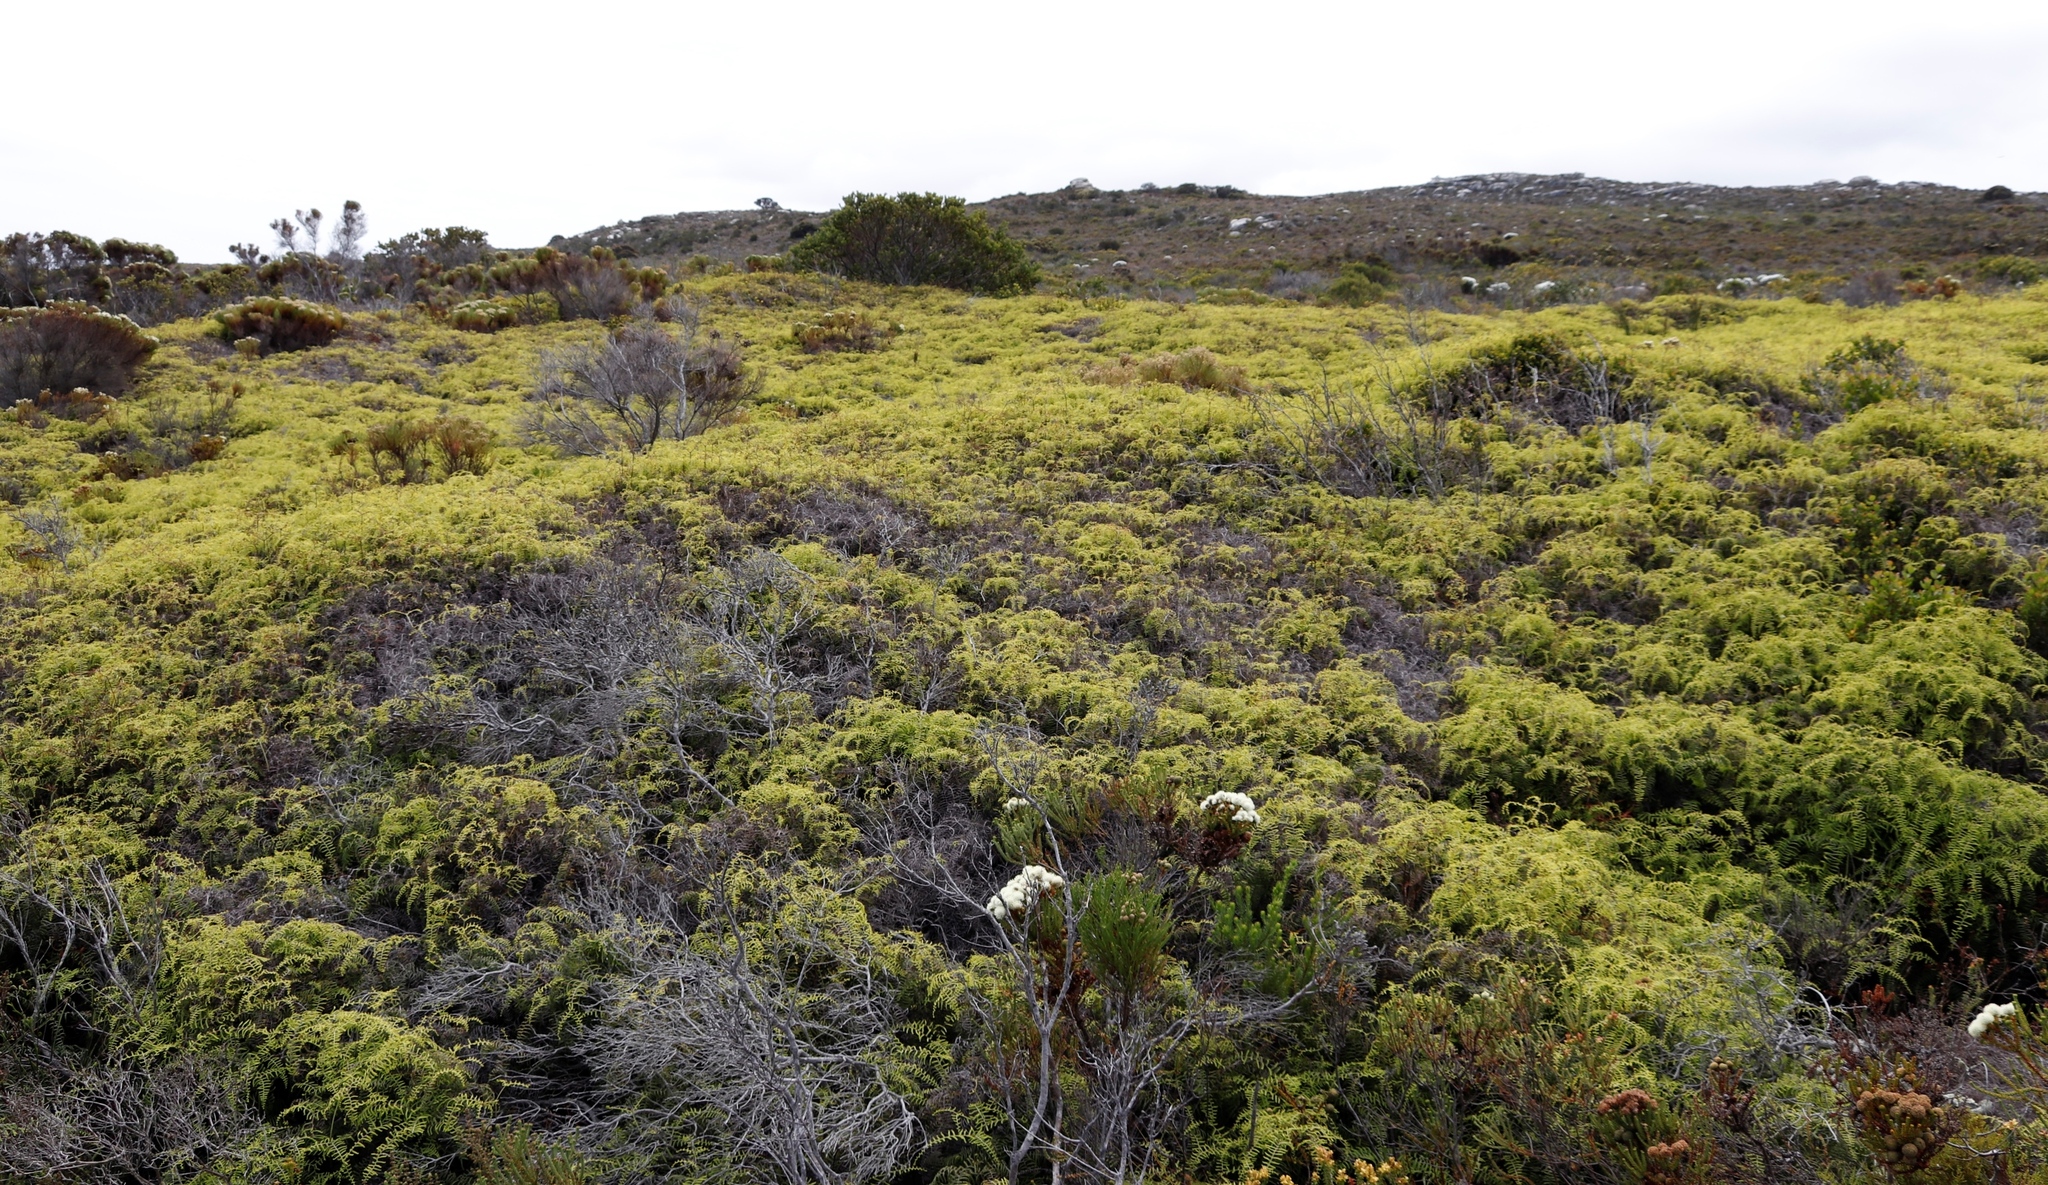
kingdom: Plantae
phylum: Tracheophyta
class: Polypodiopsida
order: Gleicheniales
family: Gleicheniaceae
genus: Gleichenia
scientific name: Gleichenia polypodioides
